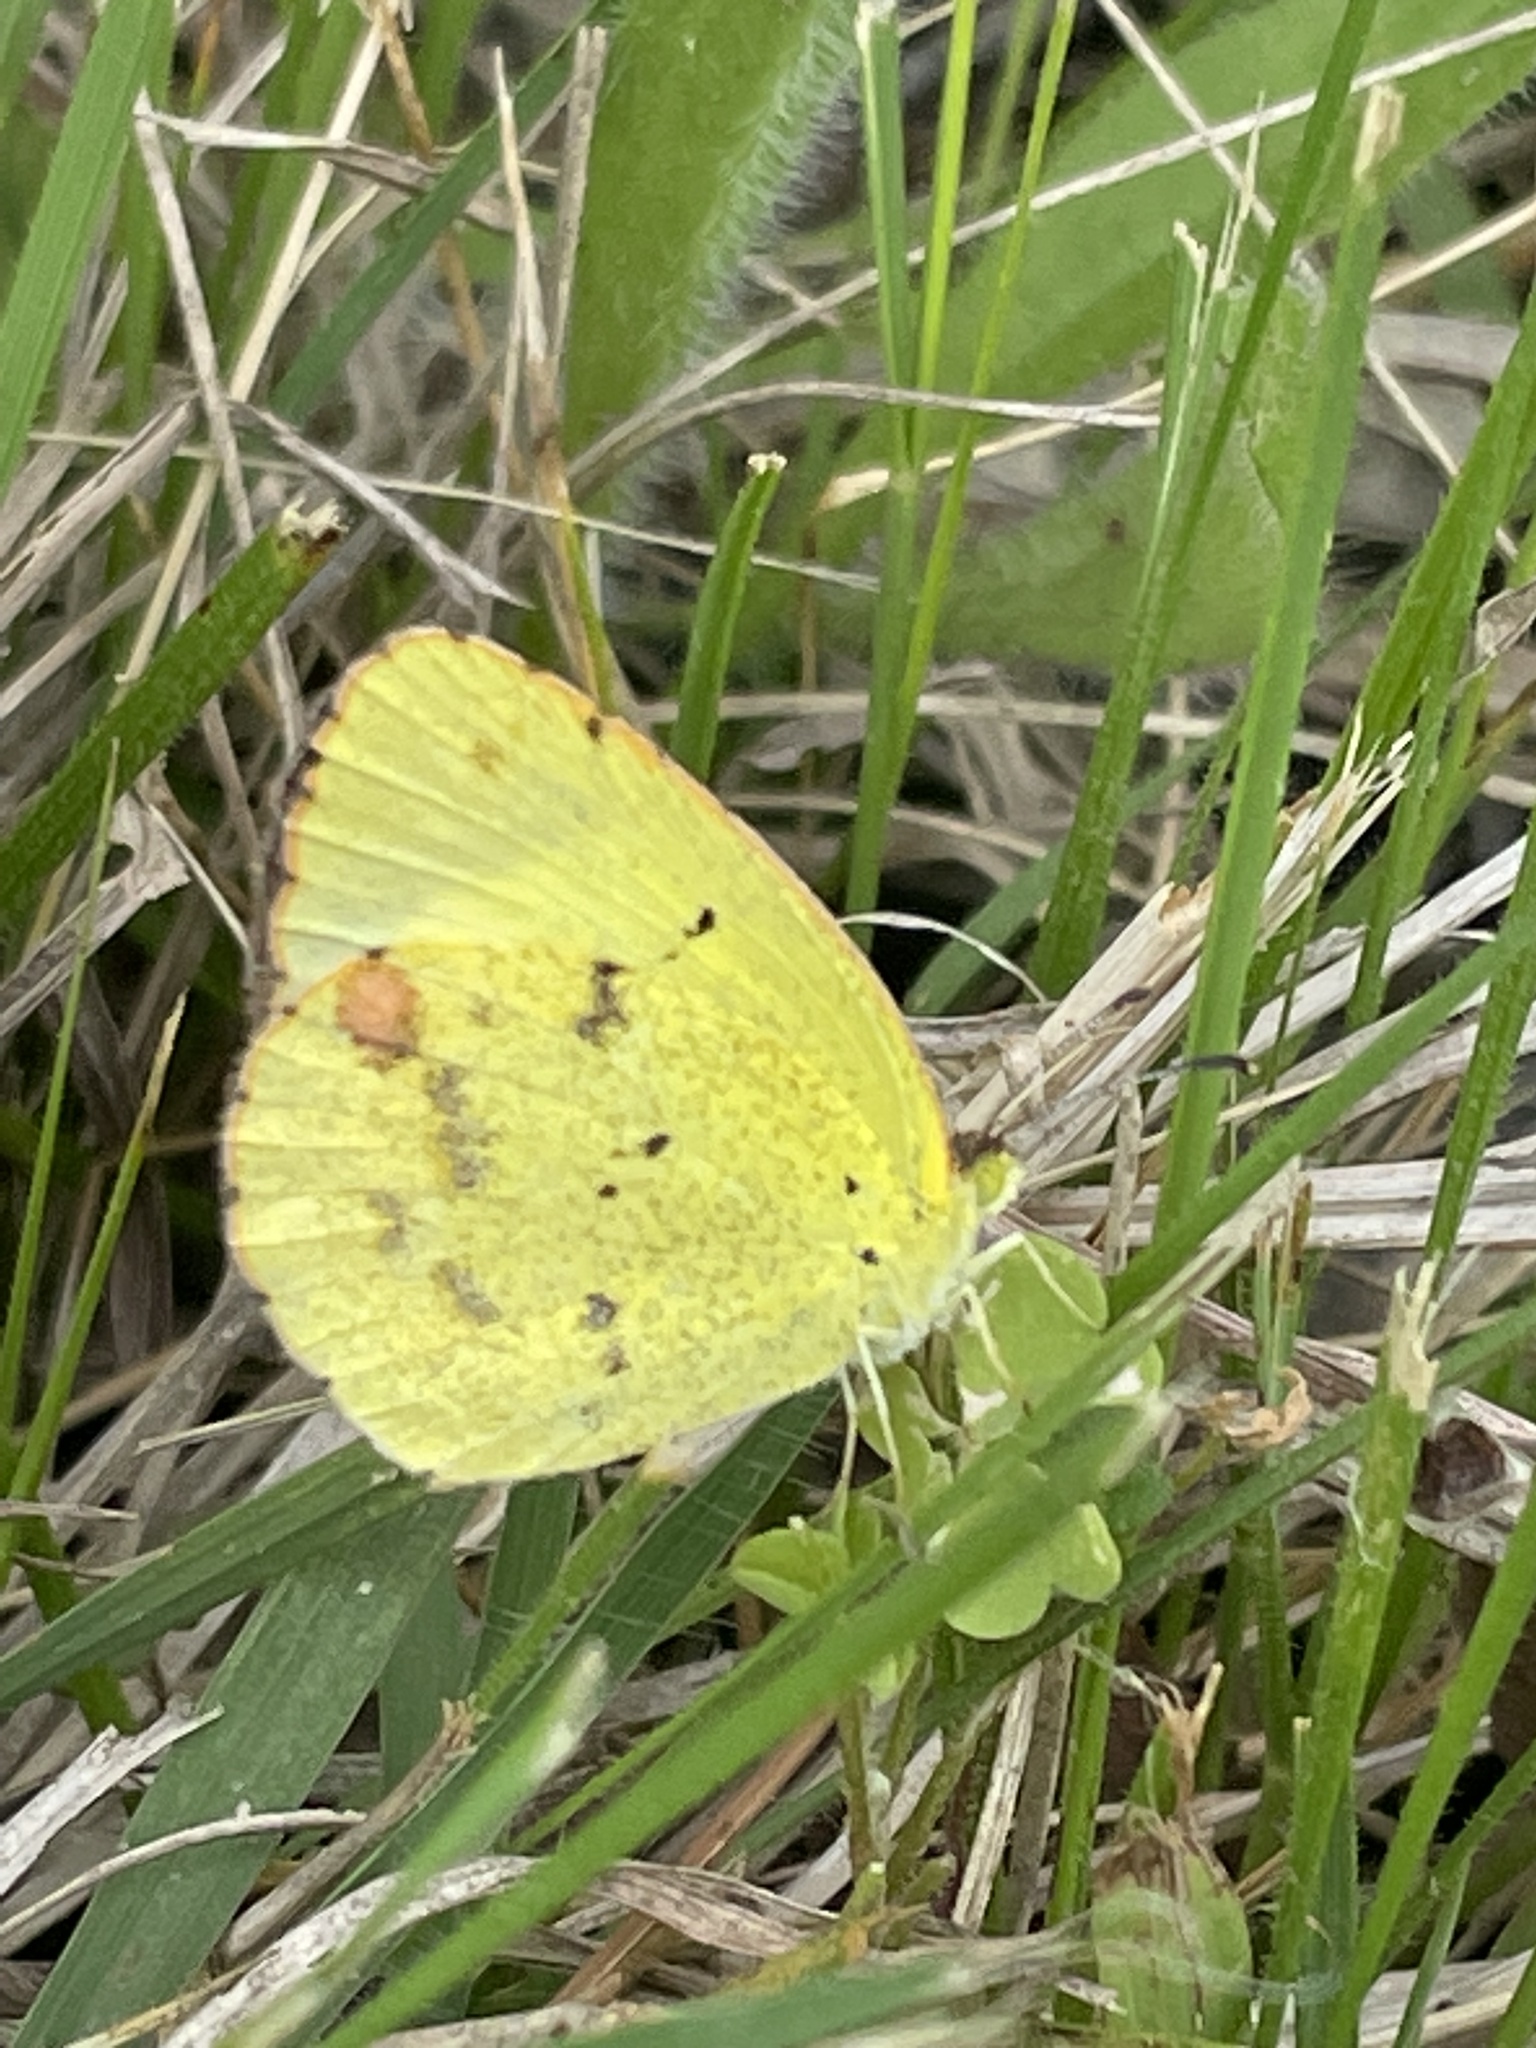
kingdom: Animalia
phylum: Arthropoda
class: Insecta
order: Lepidoptera
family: Pieridae
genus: Pyrisitia
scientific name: Pyrisitia lisa
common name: Little yellow
